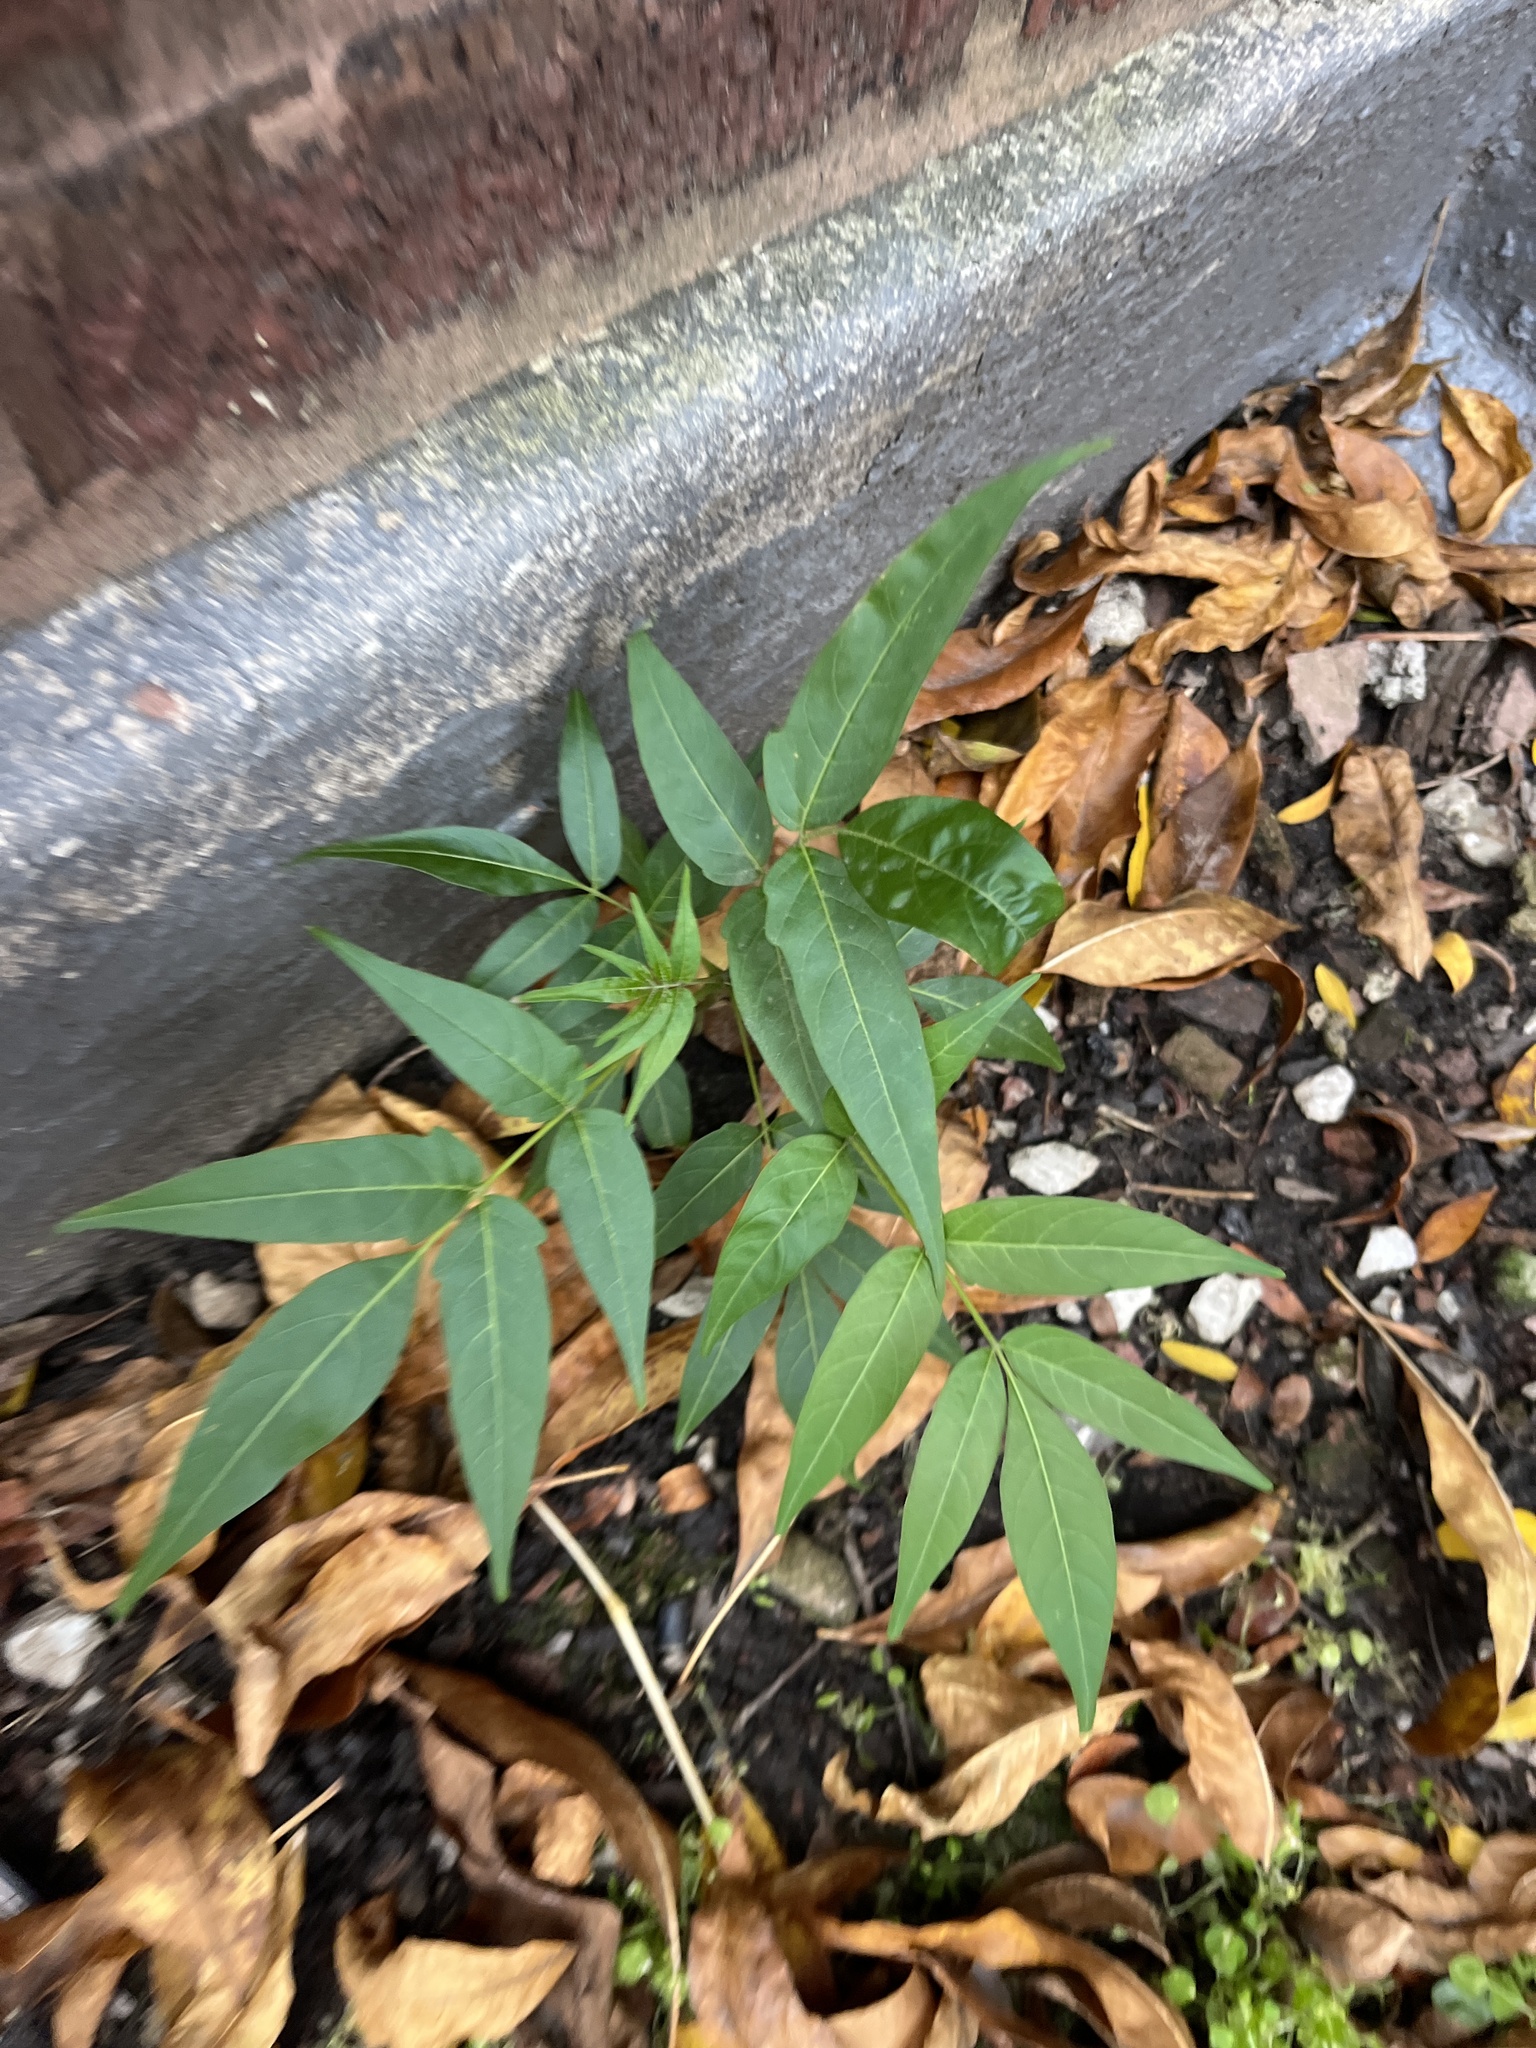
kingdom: Plantae
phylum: Tracheophyta
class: Magnoliopsida
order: Sapindales
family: Simaroubaceae
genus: Ailanthus
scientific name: Ailanthus altissima
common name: Tree-of-heaven
